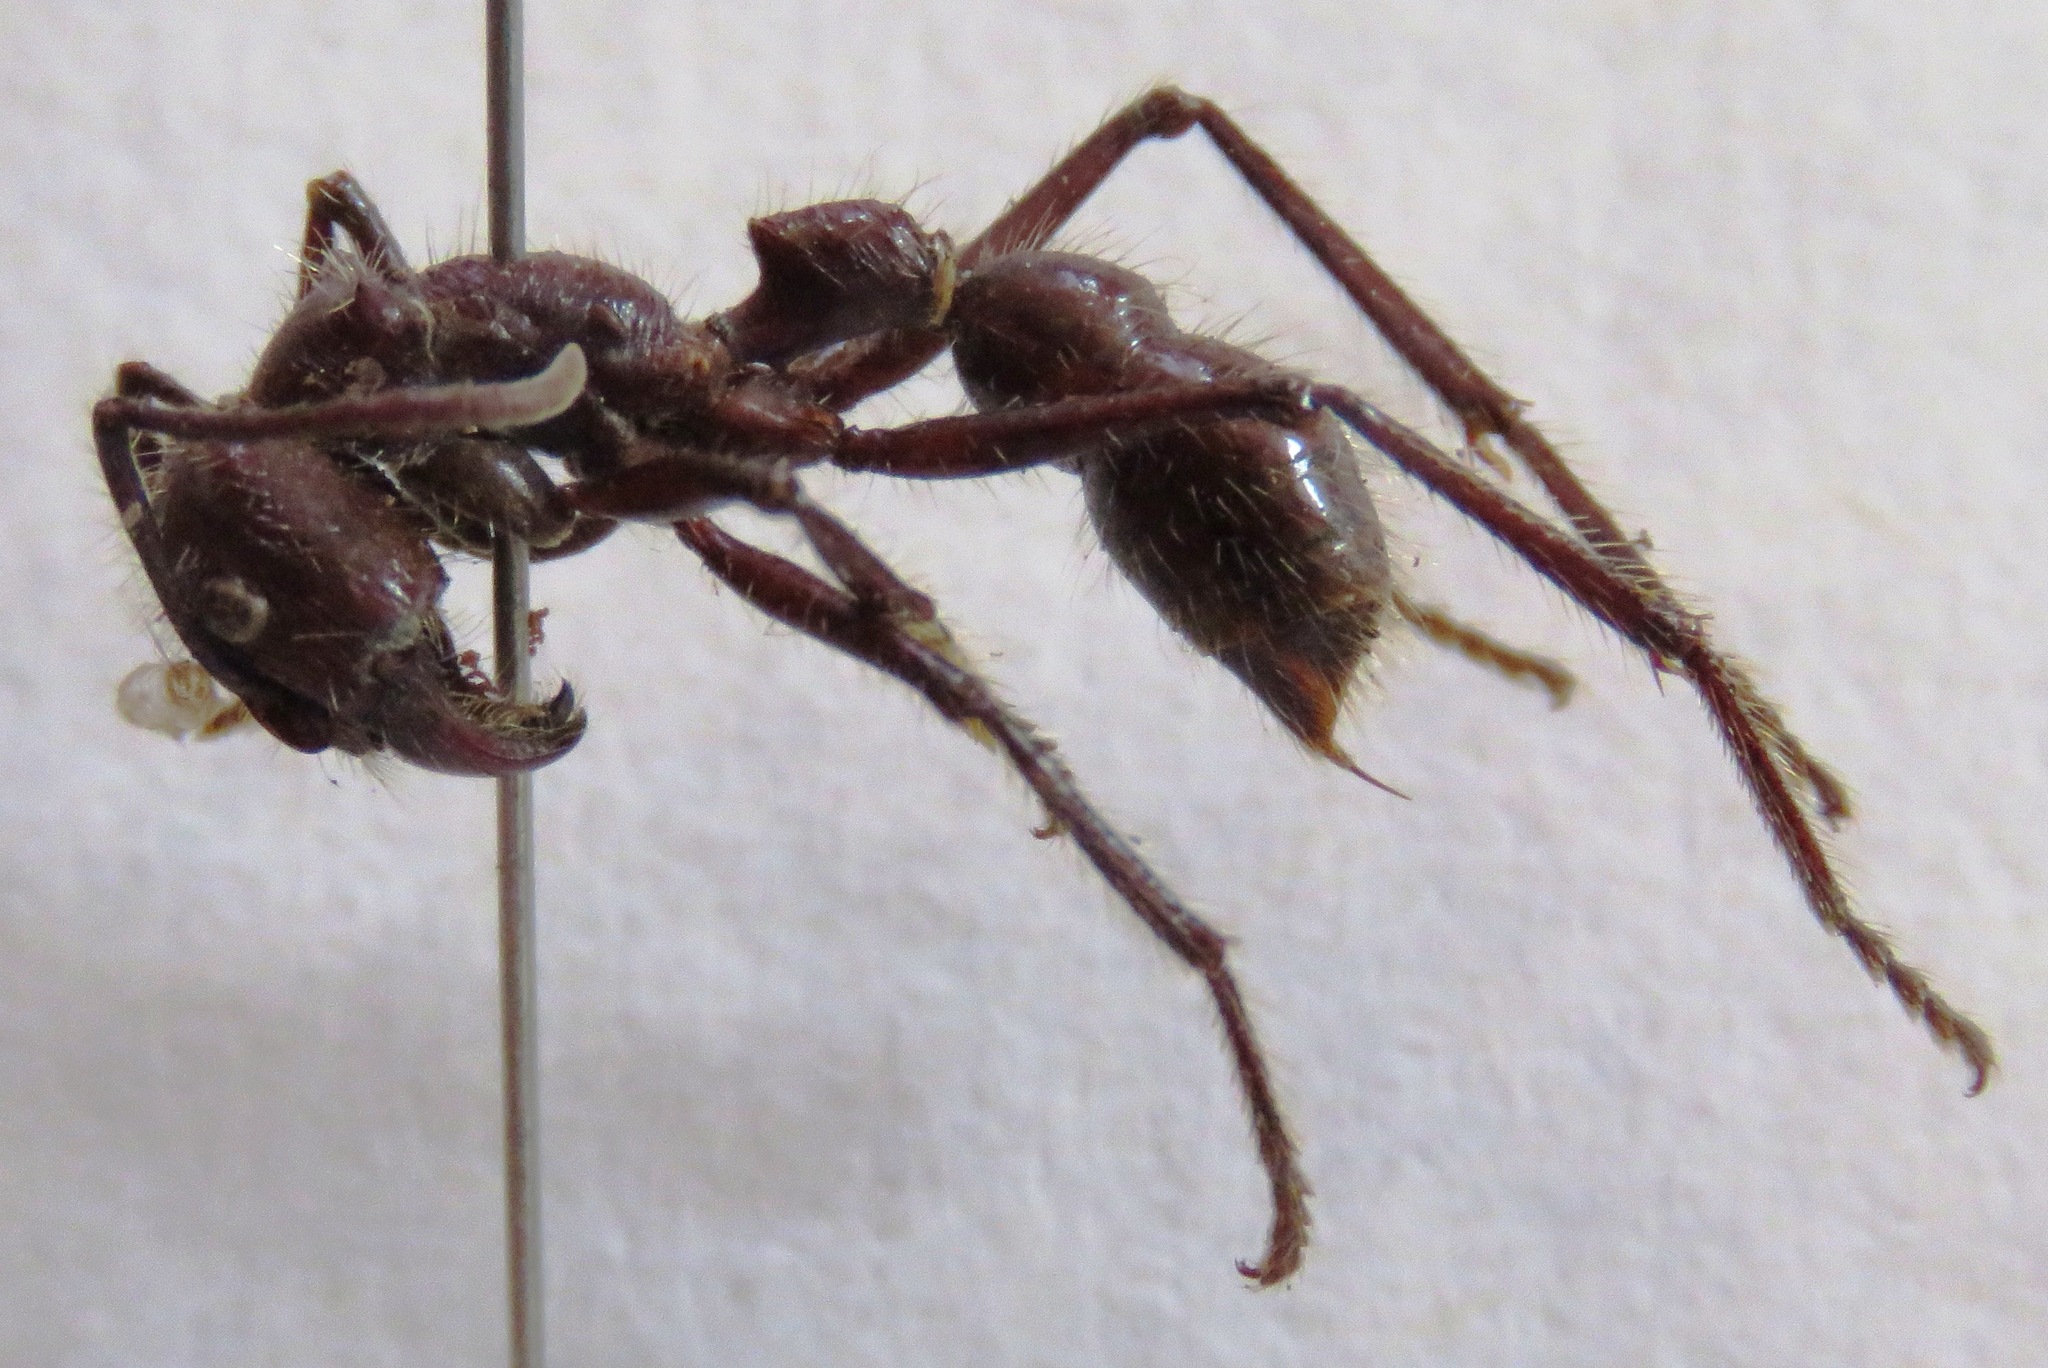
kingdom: Animalia
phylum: Arthropoda
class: Insecta
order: Hymenoptera
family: Formicidae
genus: Paraponera
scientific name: Paraponera clavata
